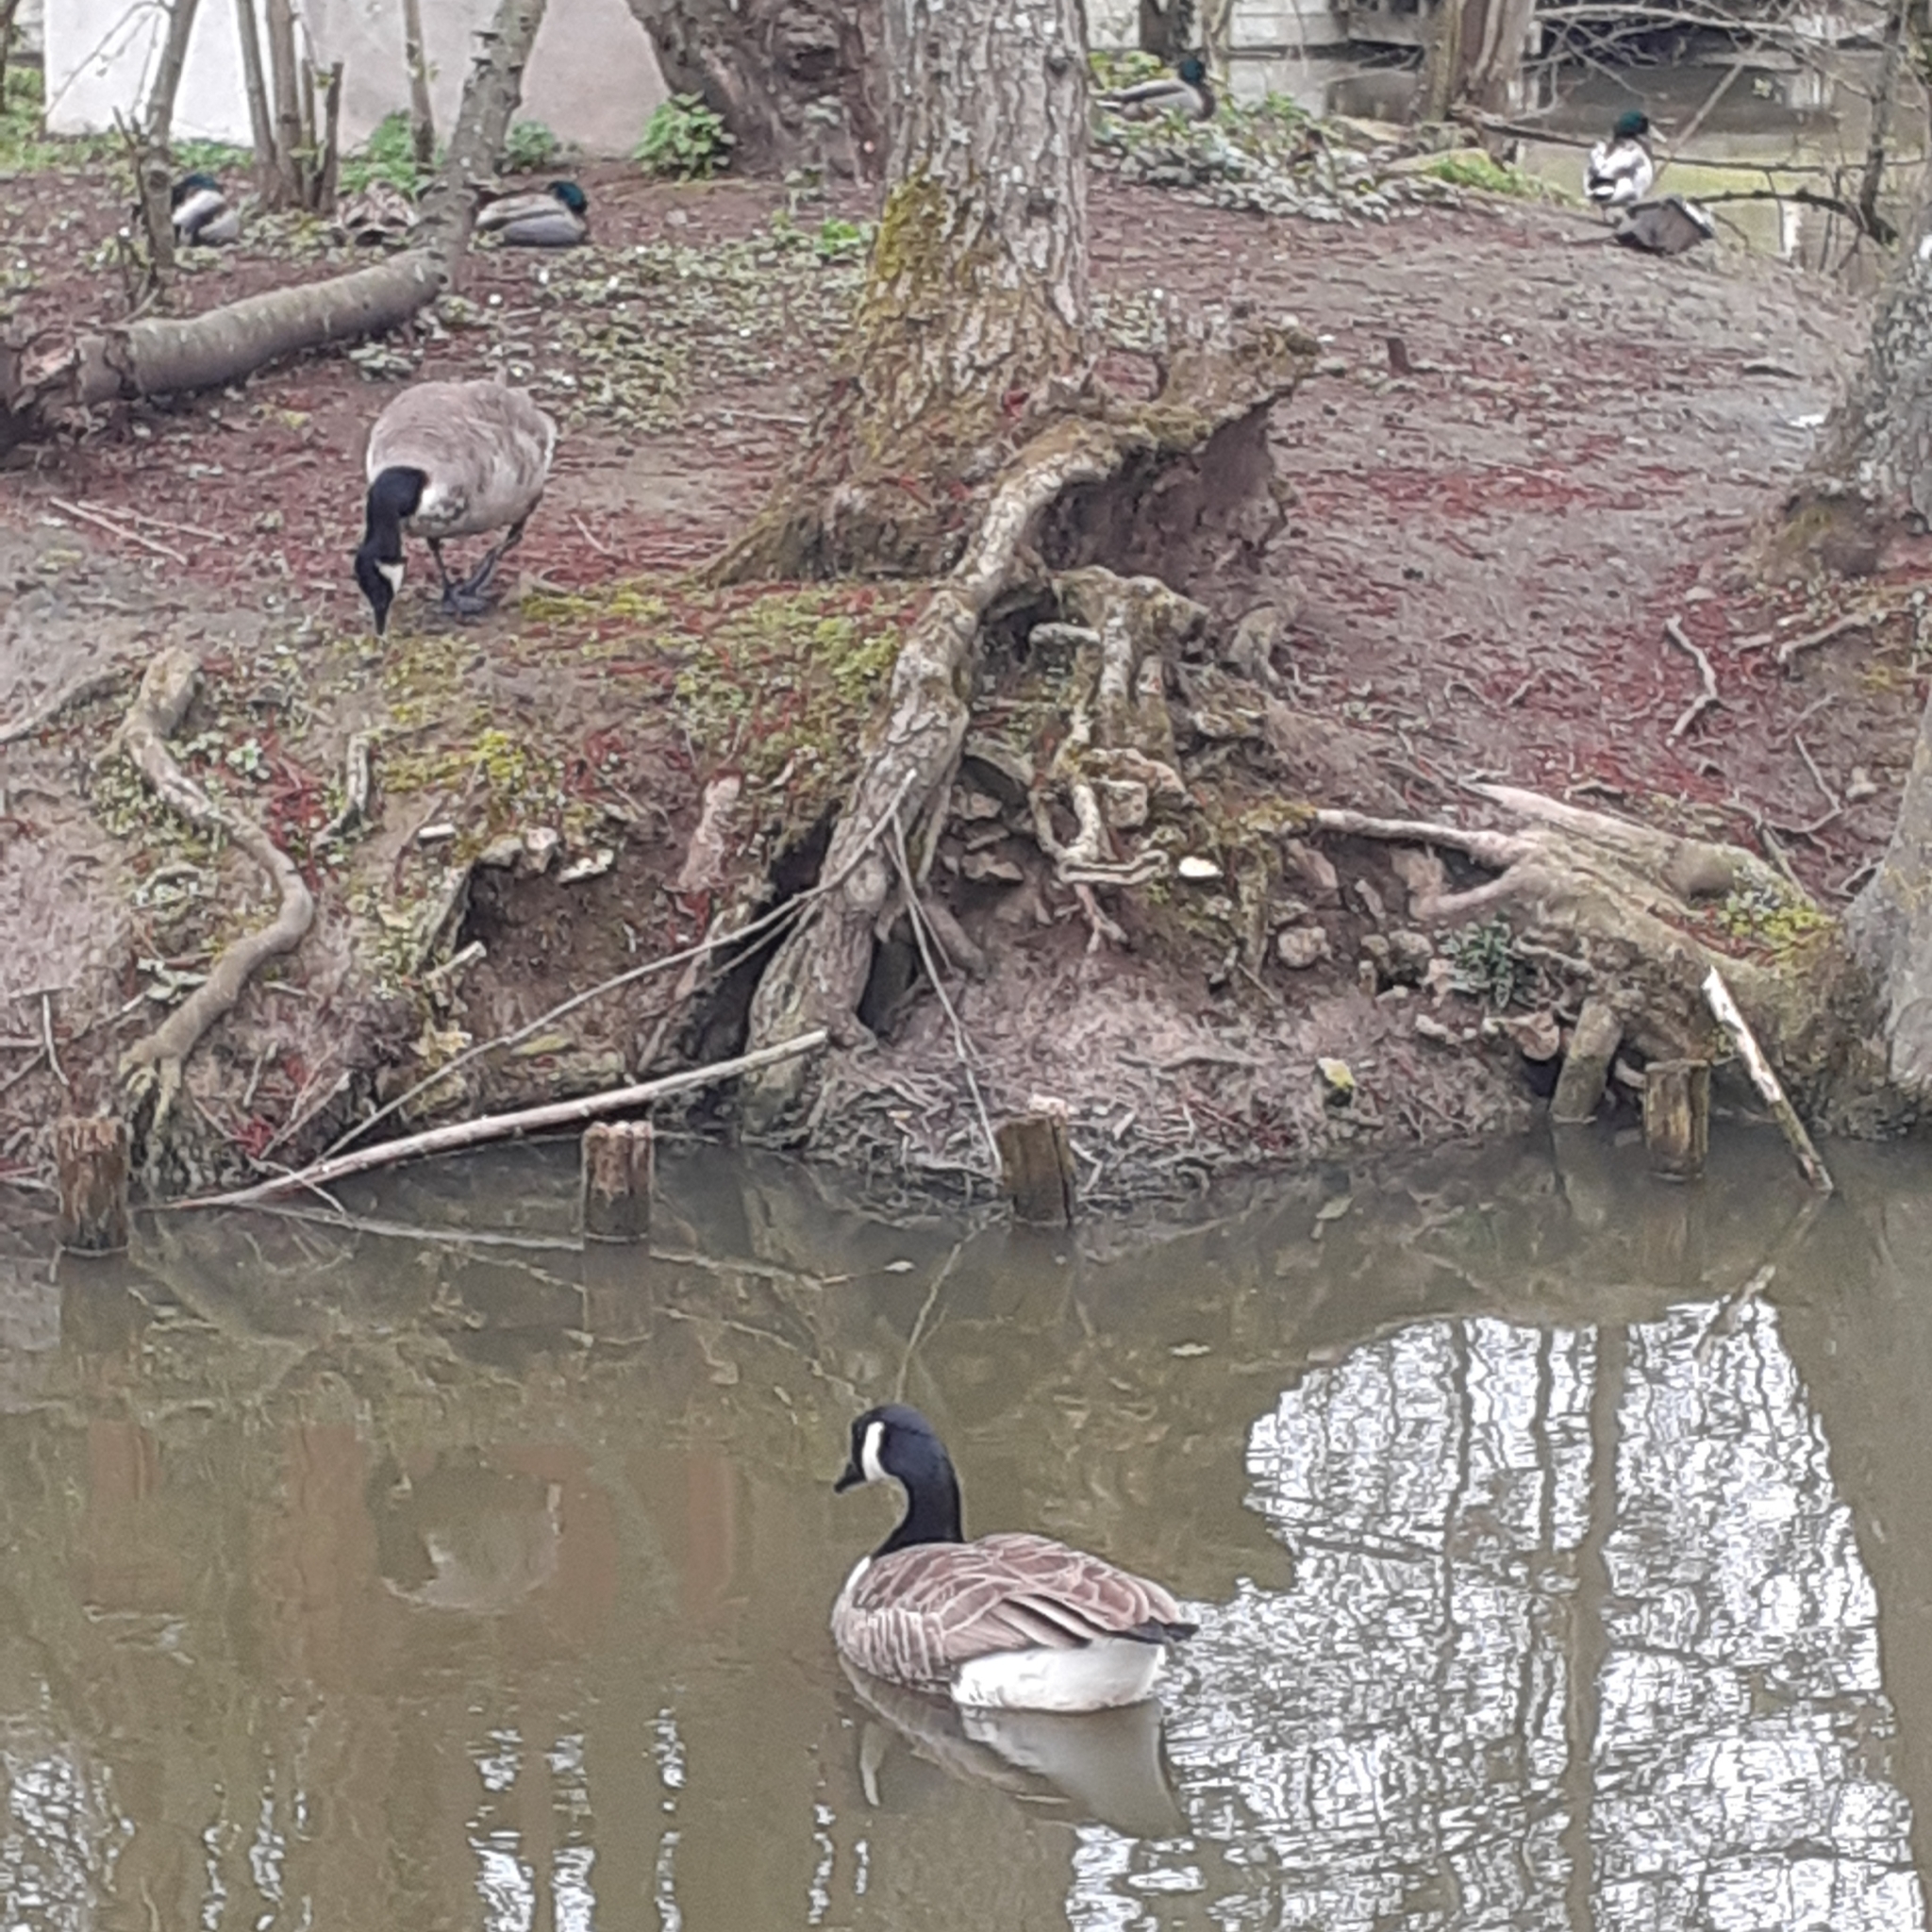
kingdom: Animalia
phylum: Chordata
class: Aves
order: Anseriformes
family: Anatidae
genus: Branta
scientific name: Branta canadensis
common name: Canada goose
